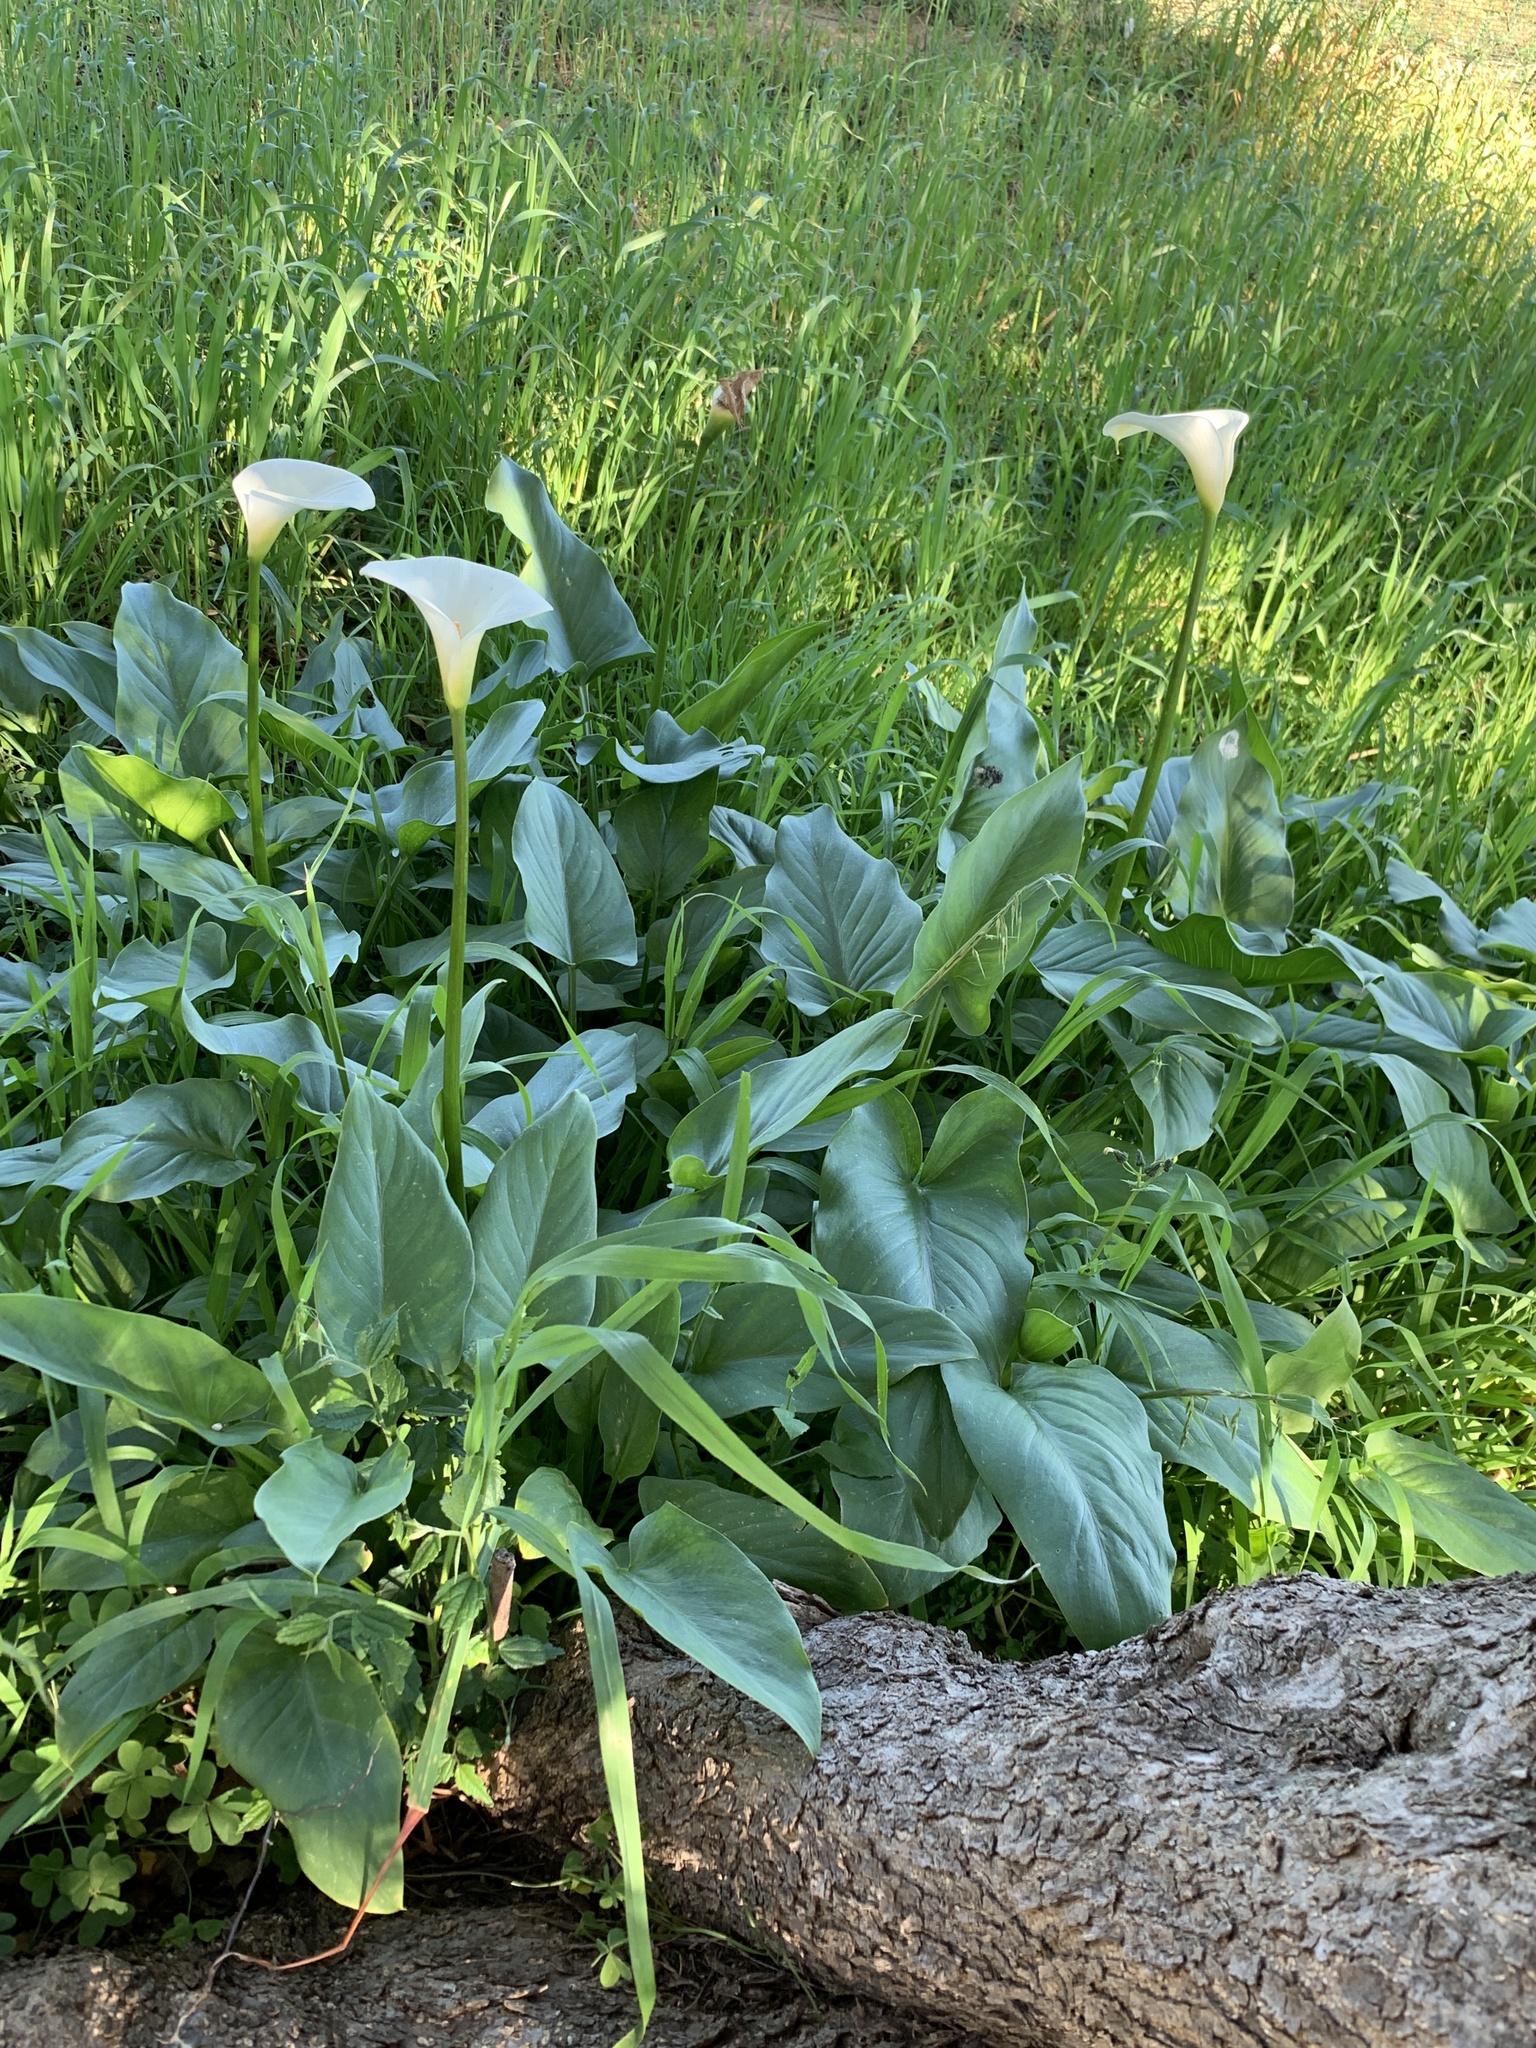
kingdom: Plantae
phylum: Tracheophyta
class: Liliopsida
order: Alismatales
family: Araceae
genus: Zantedeschia
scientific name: Zantedeschia aethiopica
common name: Altar-lily
